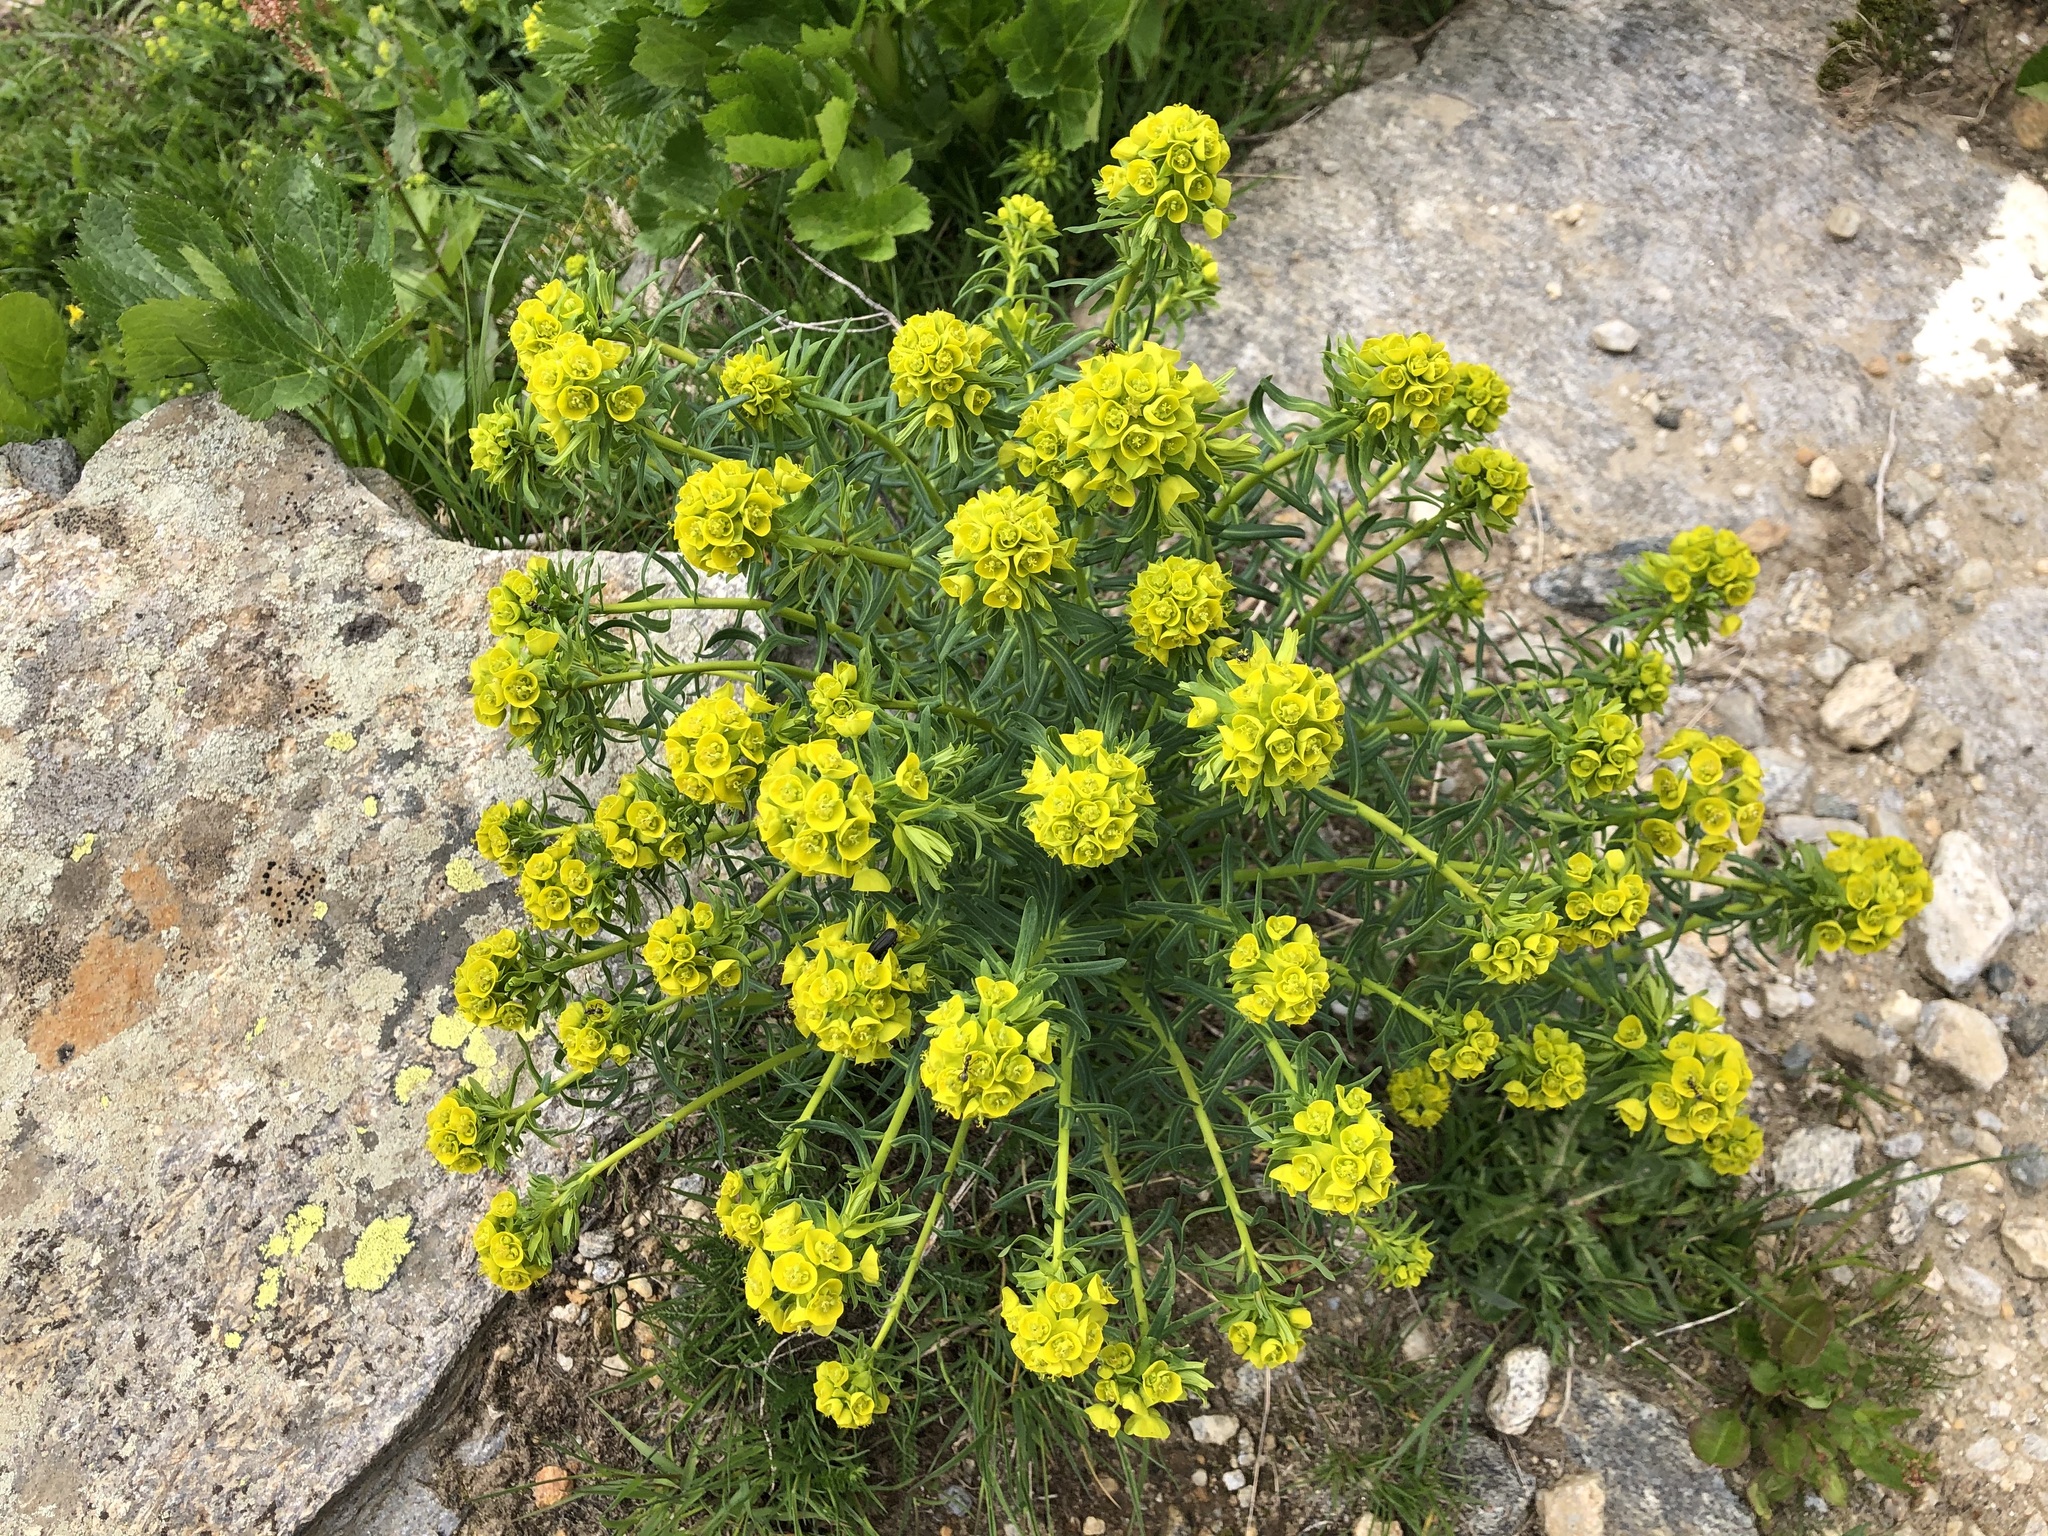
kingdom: Plantae
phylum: Tracheophyta
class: Magnoliopsida
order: Malpighiales
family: Euphorbiaceae
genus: Euphorbia
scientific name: Euphorbia cyparissias
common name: Cypress spurge
